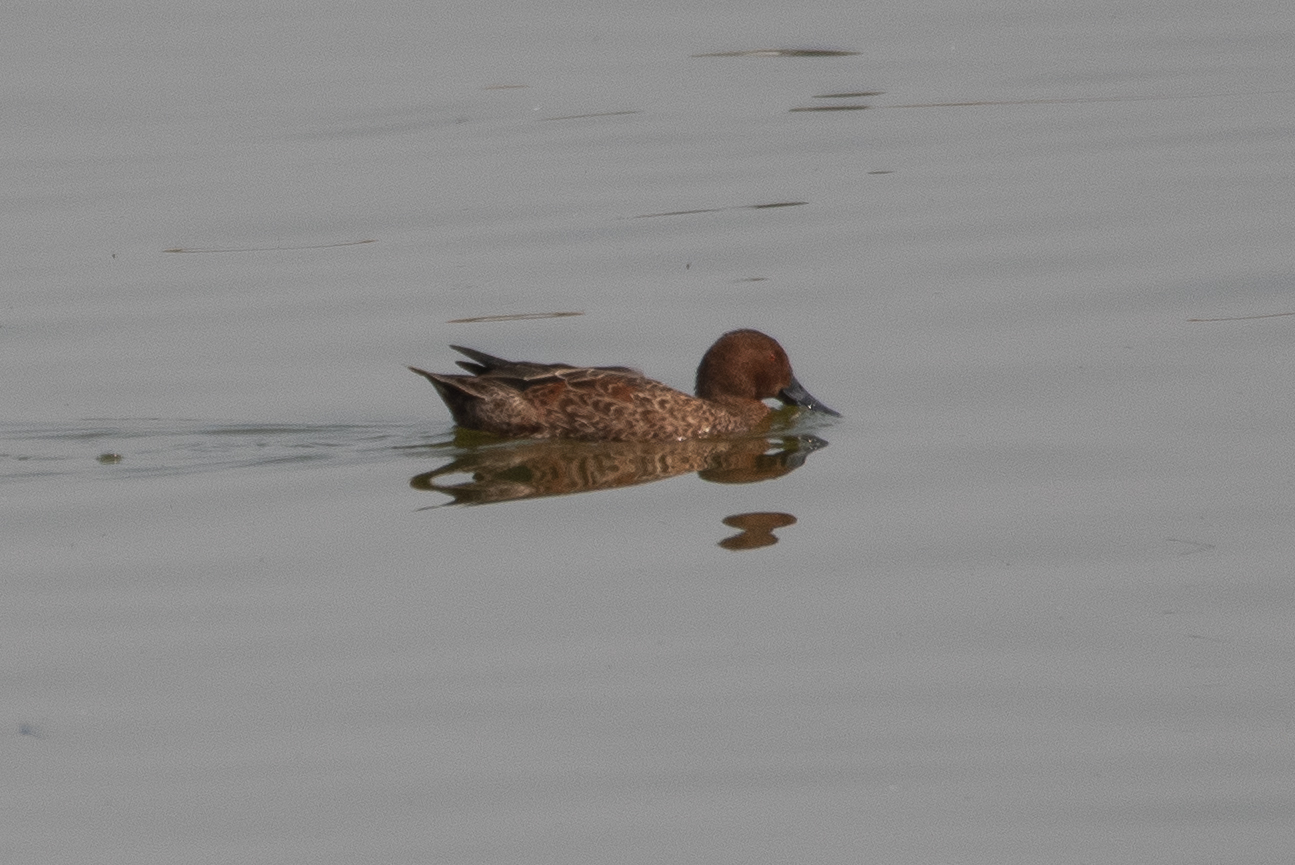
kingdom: Animalia
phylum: Chordata
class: Aves
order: Anseriformes
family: Anatidae
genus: Spatula
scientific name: Spatula cyanoptera
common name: Cinnamon teal
